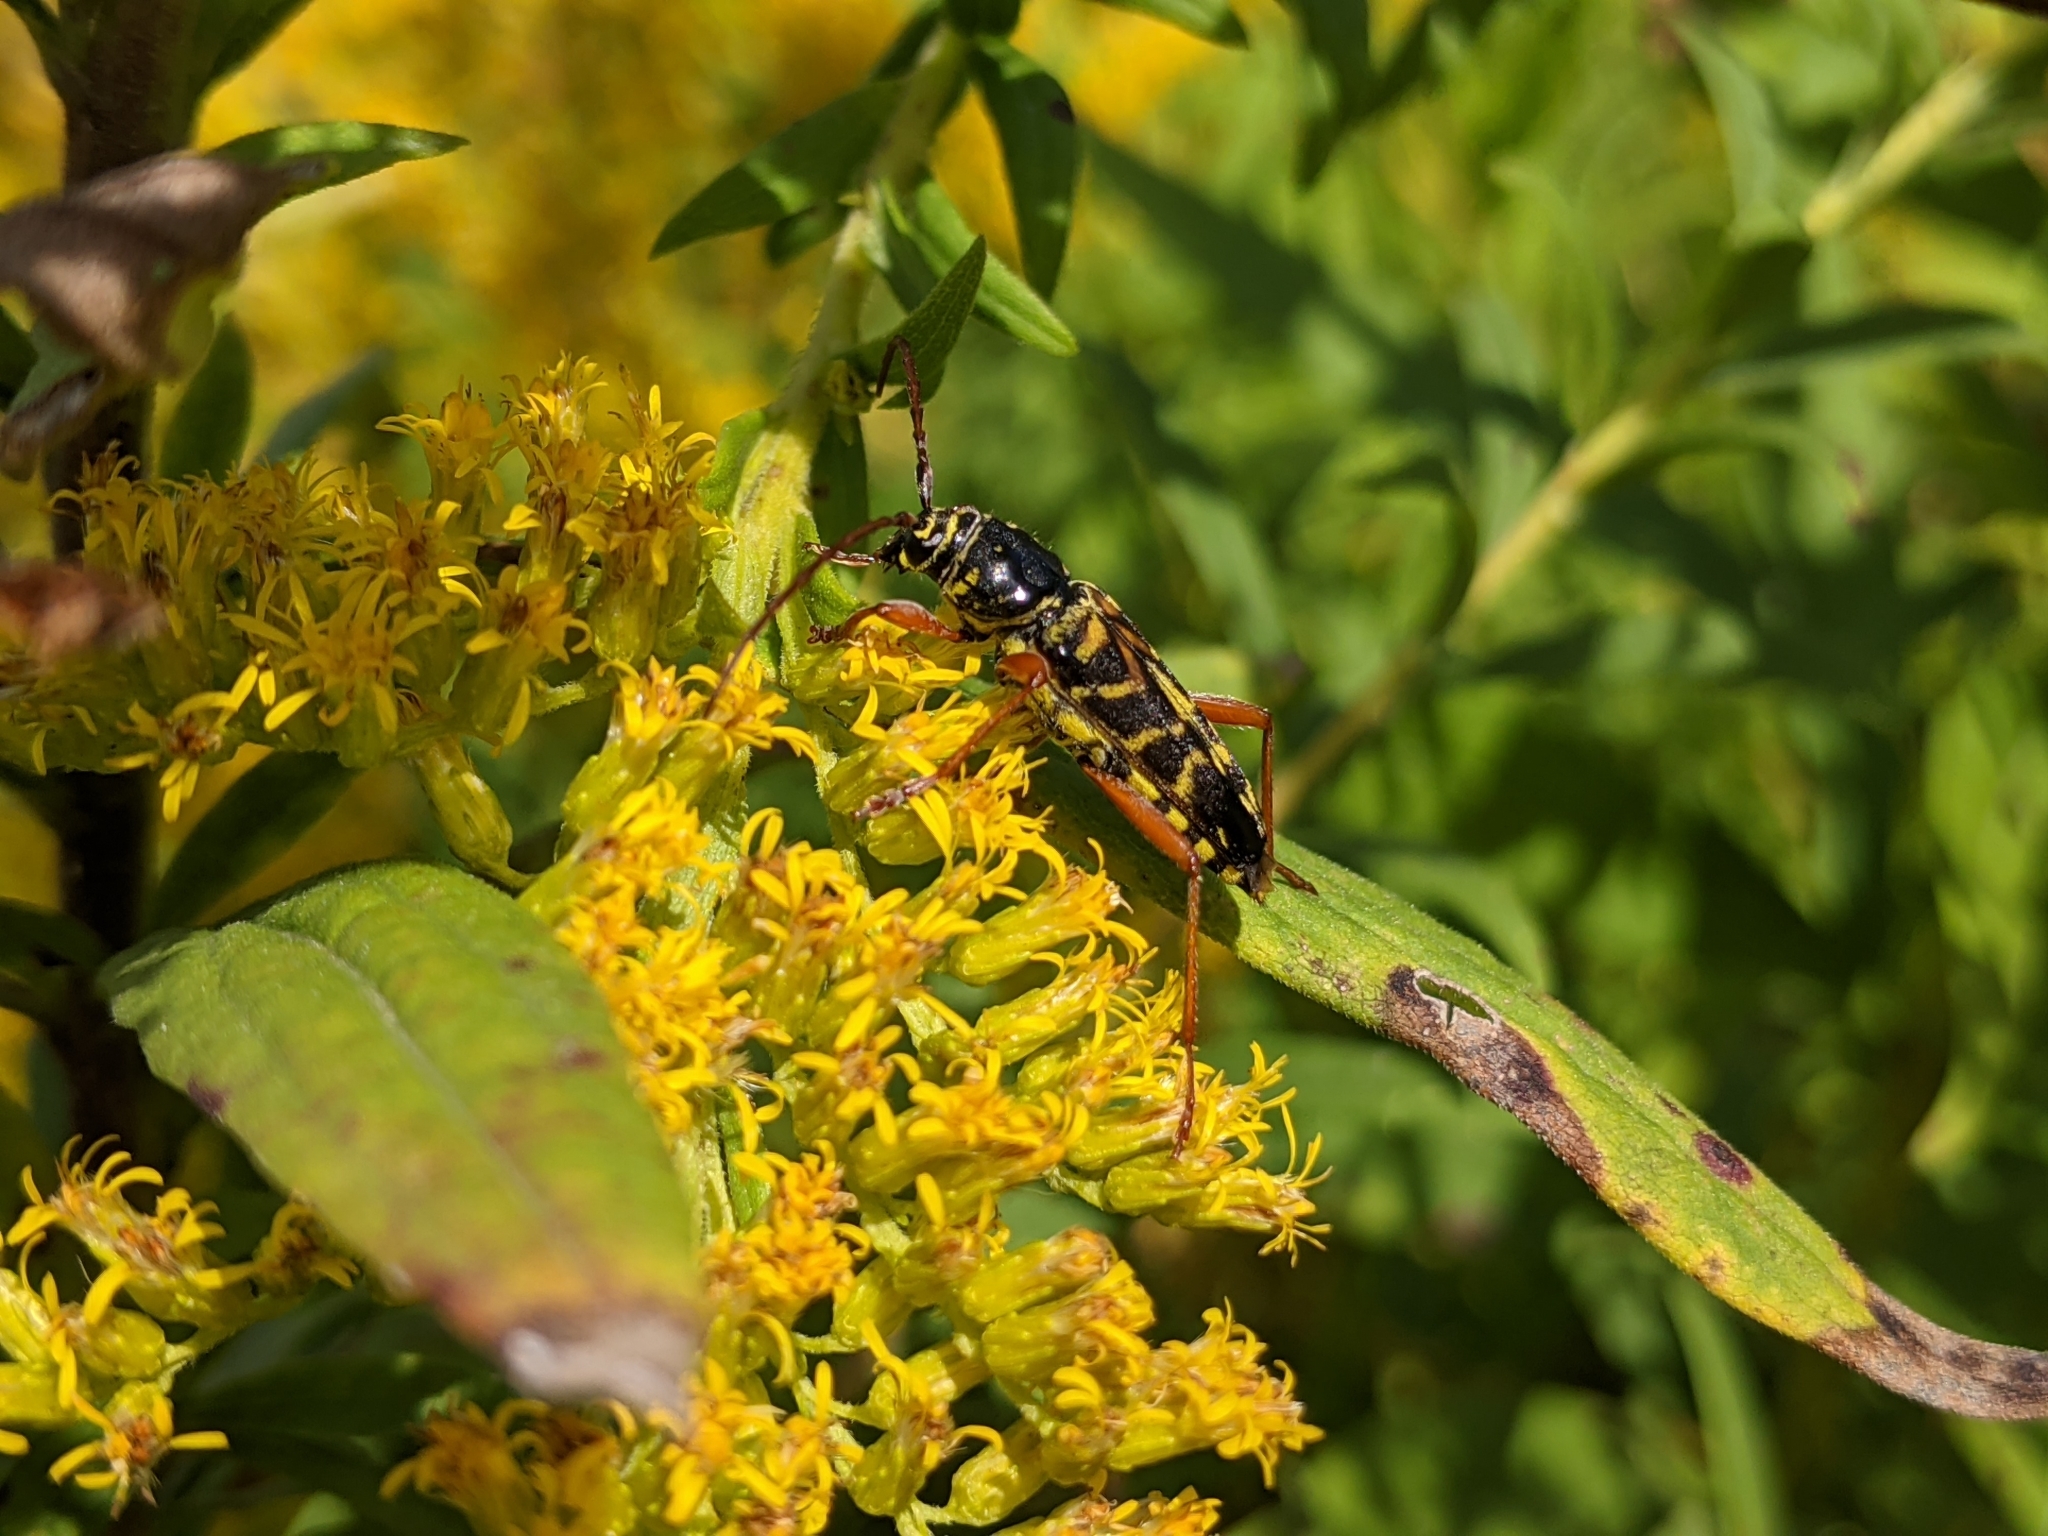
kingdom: Animalia
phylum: Arthropoda
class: Insecta
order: Coleoptera
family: Cerambycidae
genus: Megacyllene
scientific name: Megacyllene robiniae
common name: Locust borer
